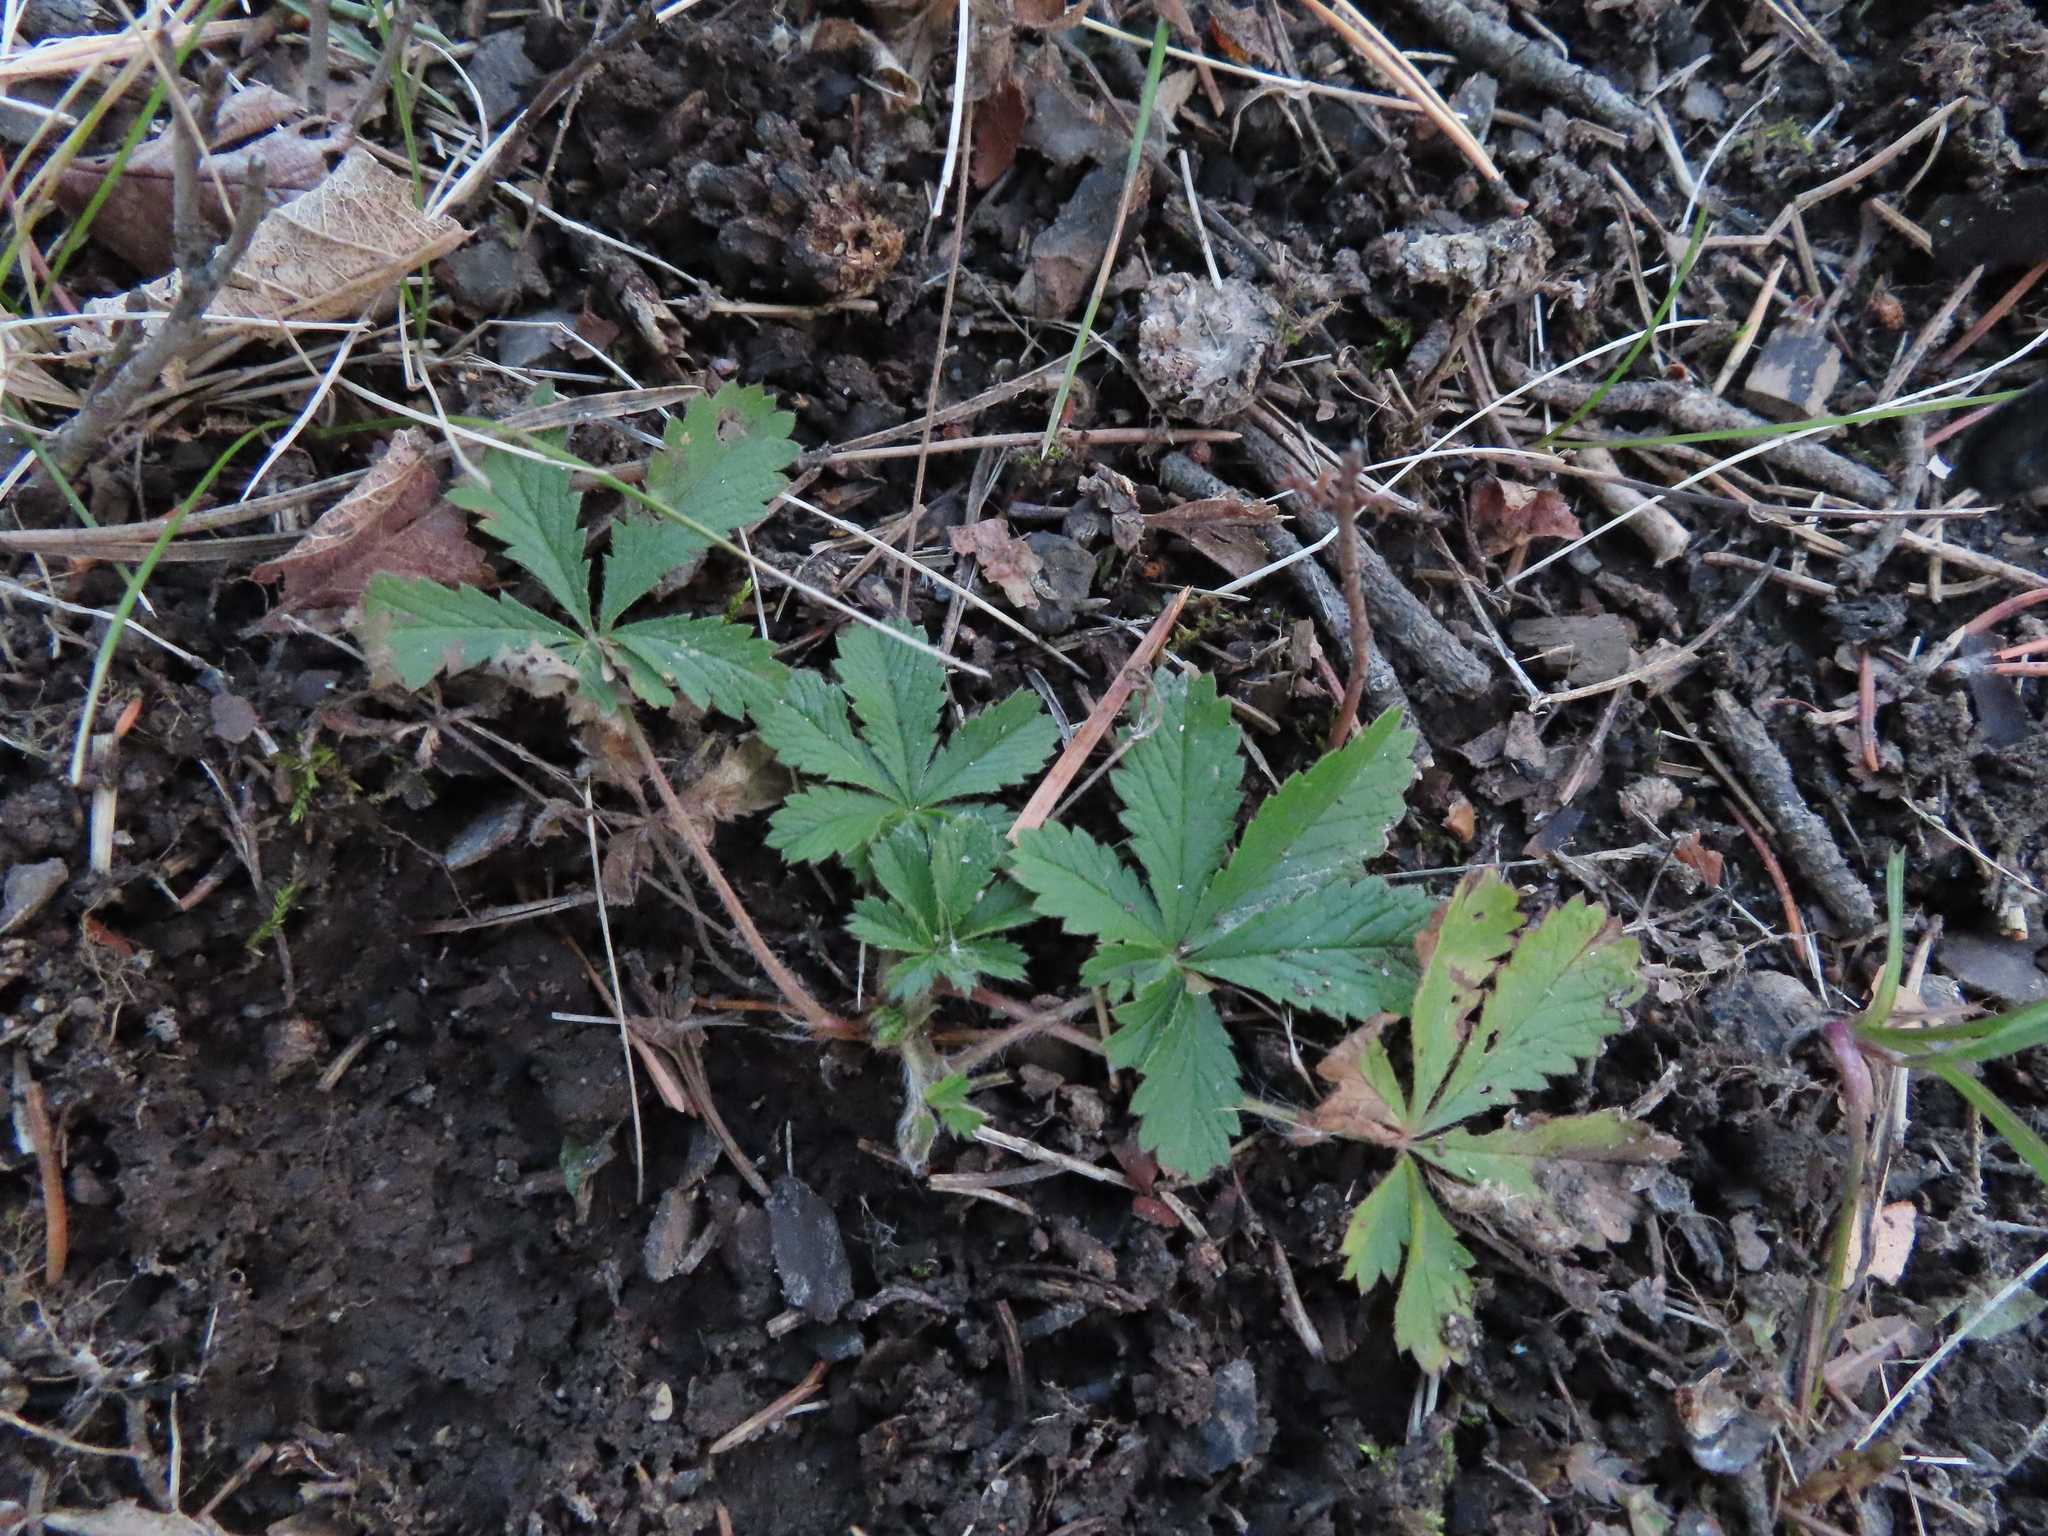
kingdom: Plantae
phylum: Tracheophyta
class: Magnoliopsida
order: Rosales
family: Rosaceae
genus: Potentilla
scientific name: Potentilla recta
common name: Sulphur cinquefoil
